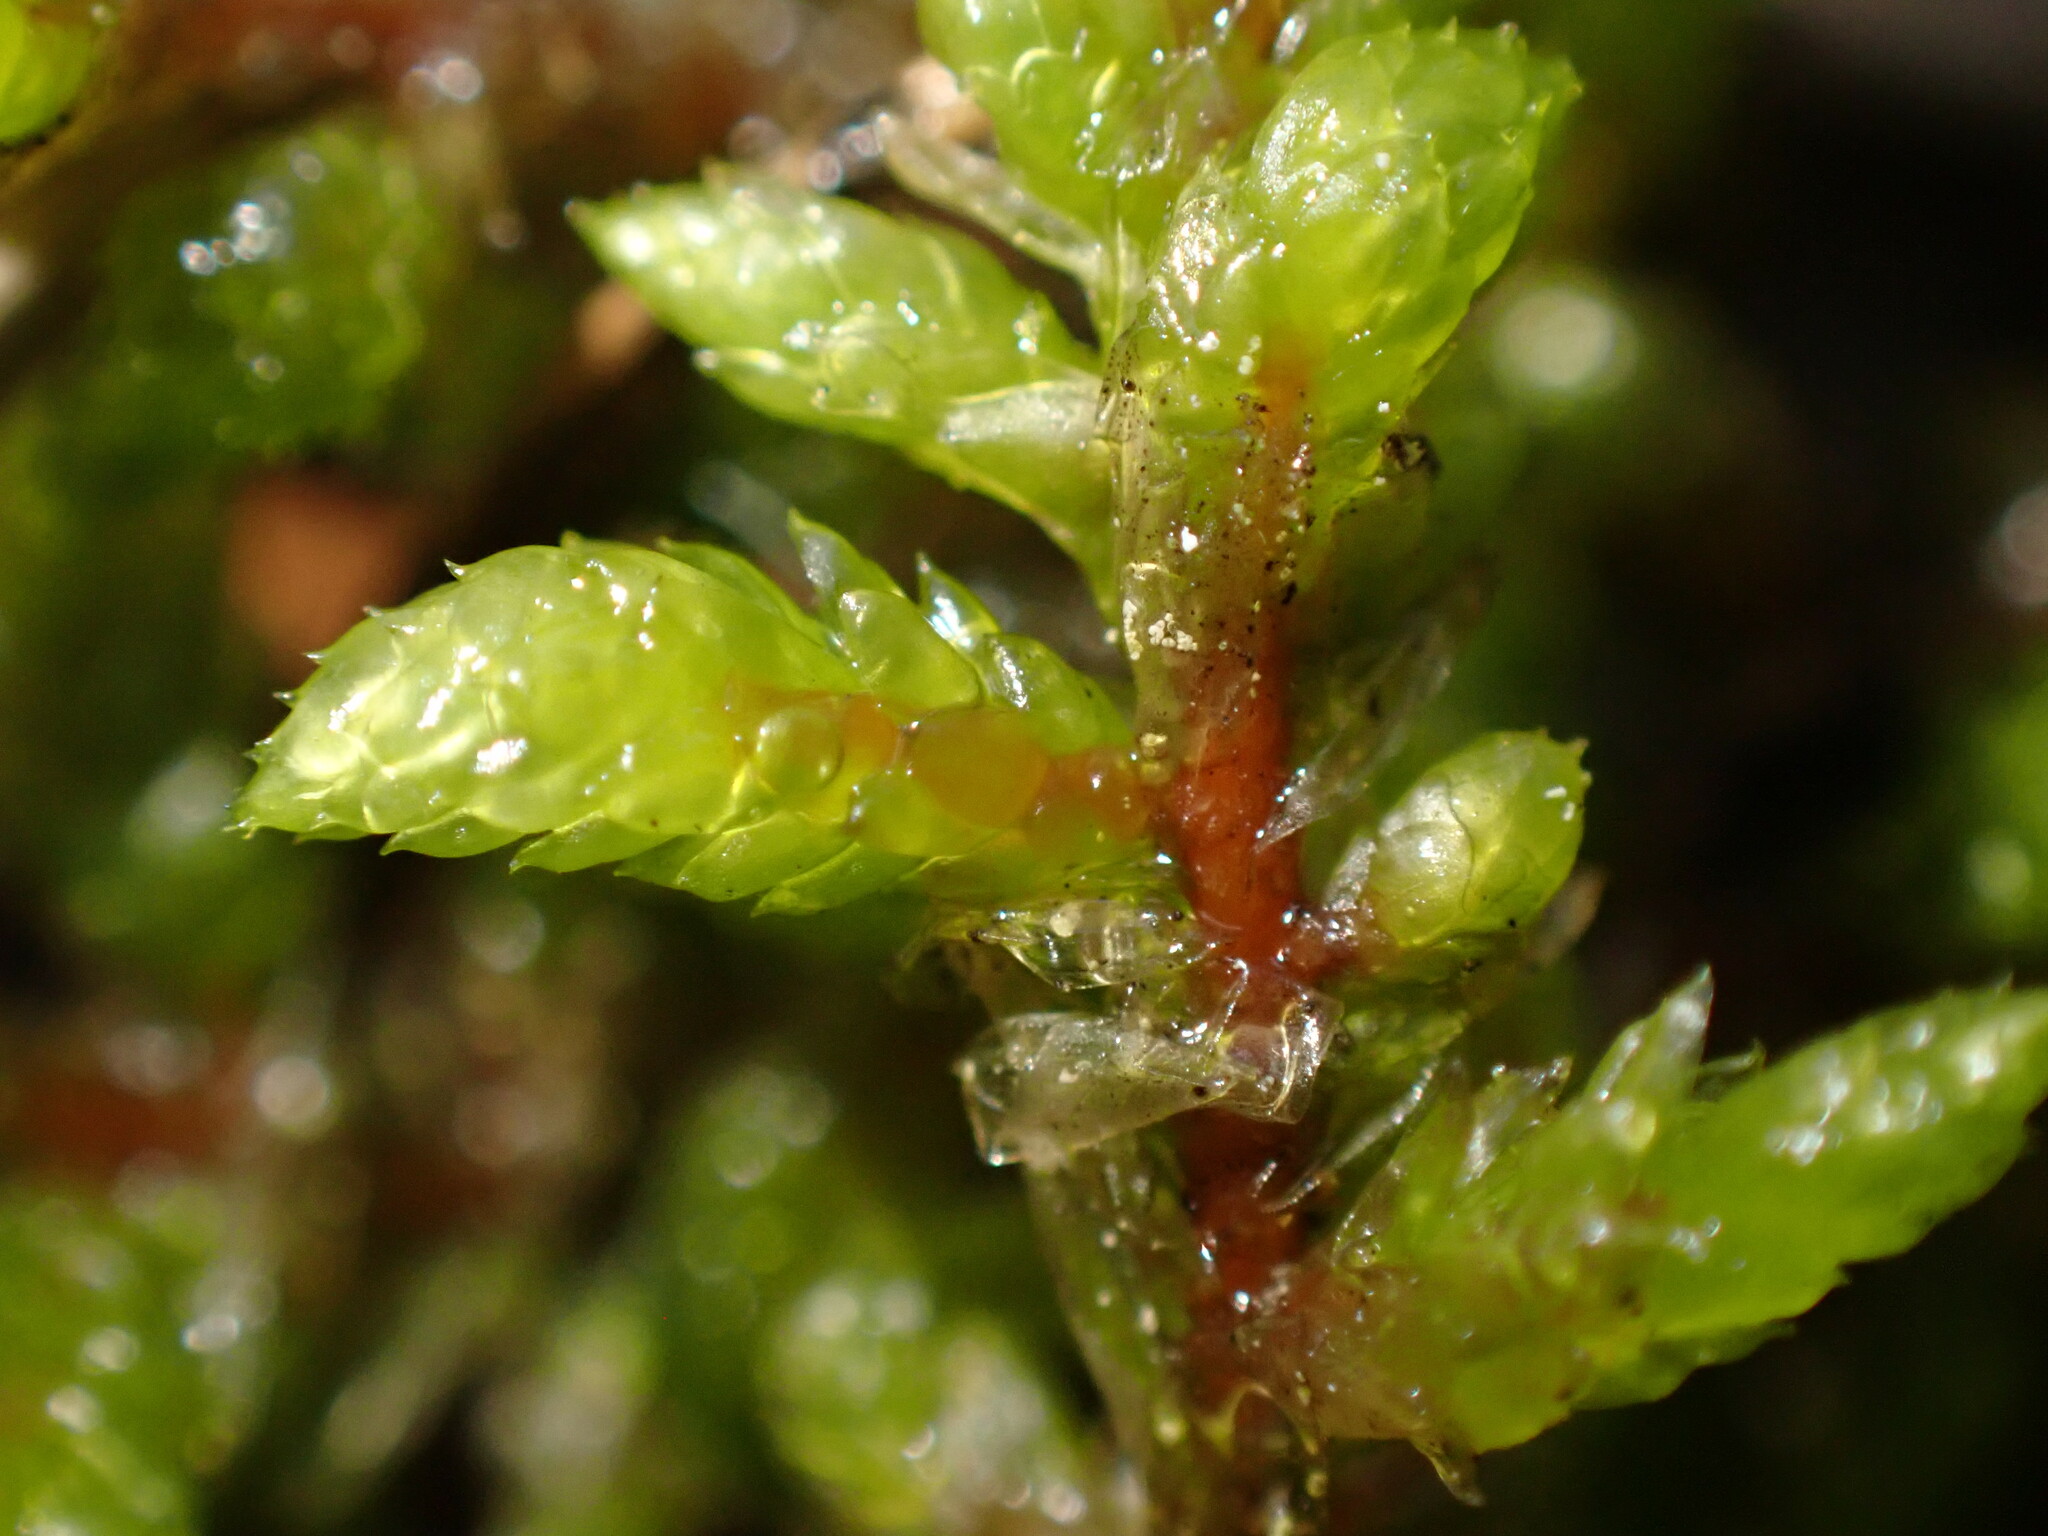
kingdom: Plantae
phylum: Bryophyta
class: Bryopsida
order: Hypnales
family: Hylocomiaceae
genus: Pleurozium
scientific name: Pleurozium schreberi
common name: Red-stemmed feather moss
